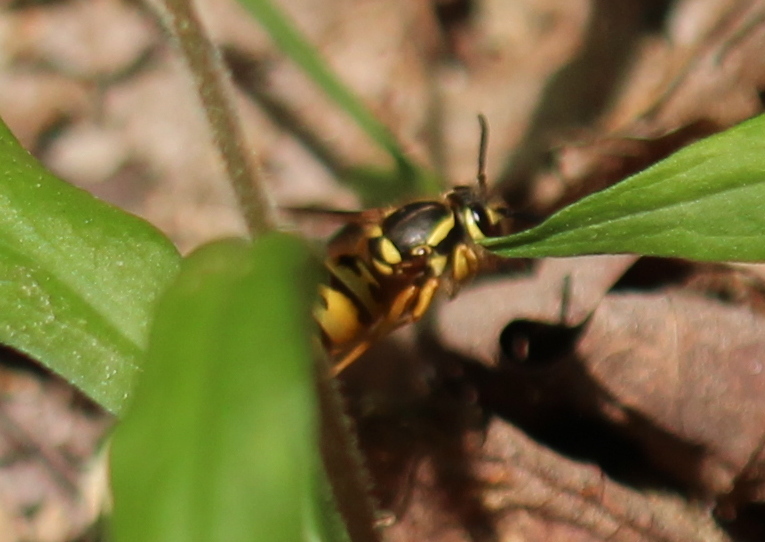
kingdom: Animalia
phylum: Arthropoda
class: Insecta
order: Hymenoptera
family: Vespidae
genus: Vespula
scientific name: Vespula maculifrons
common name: Eastern yellowjacket
